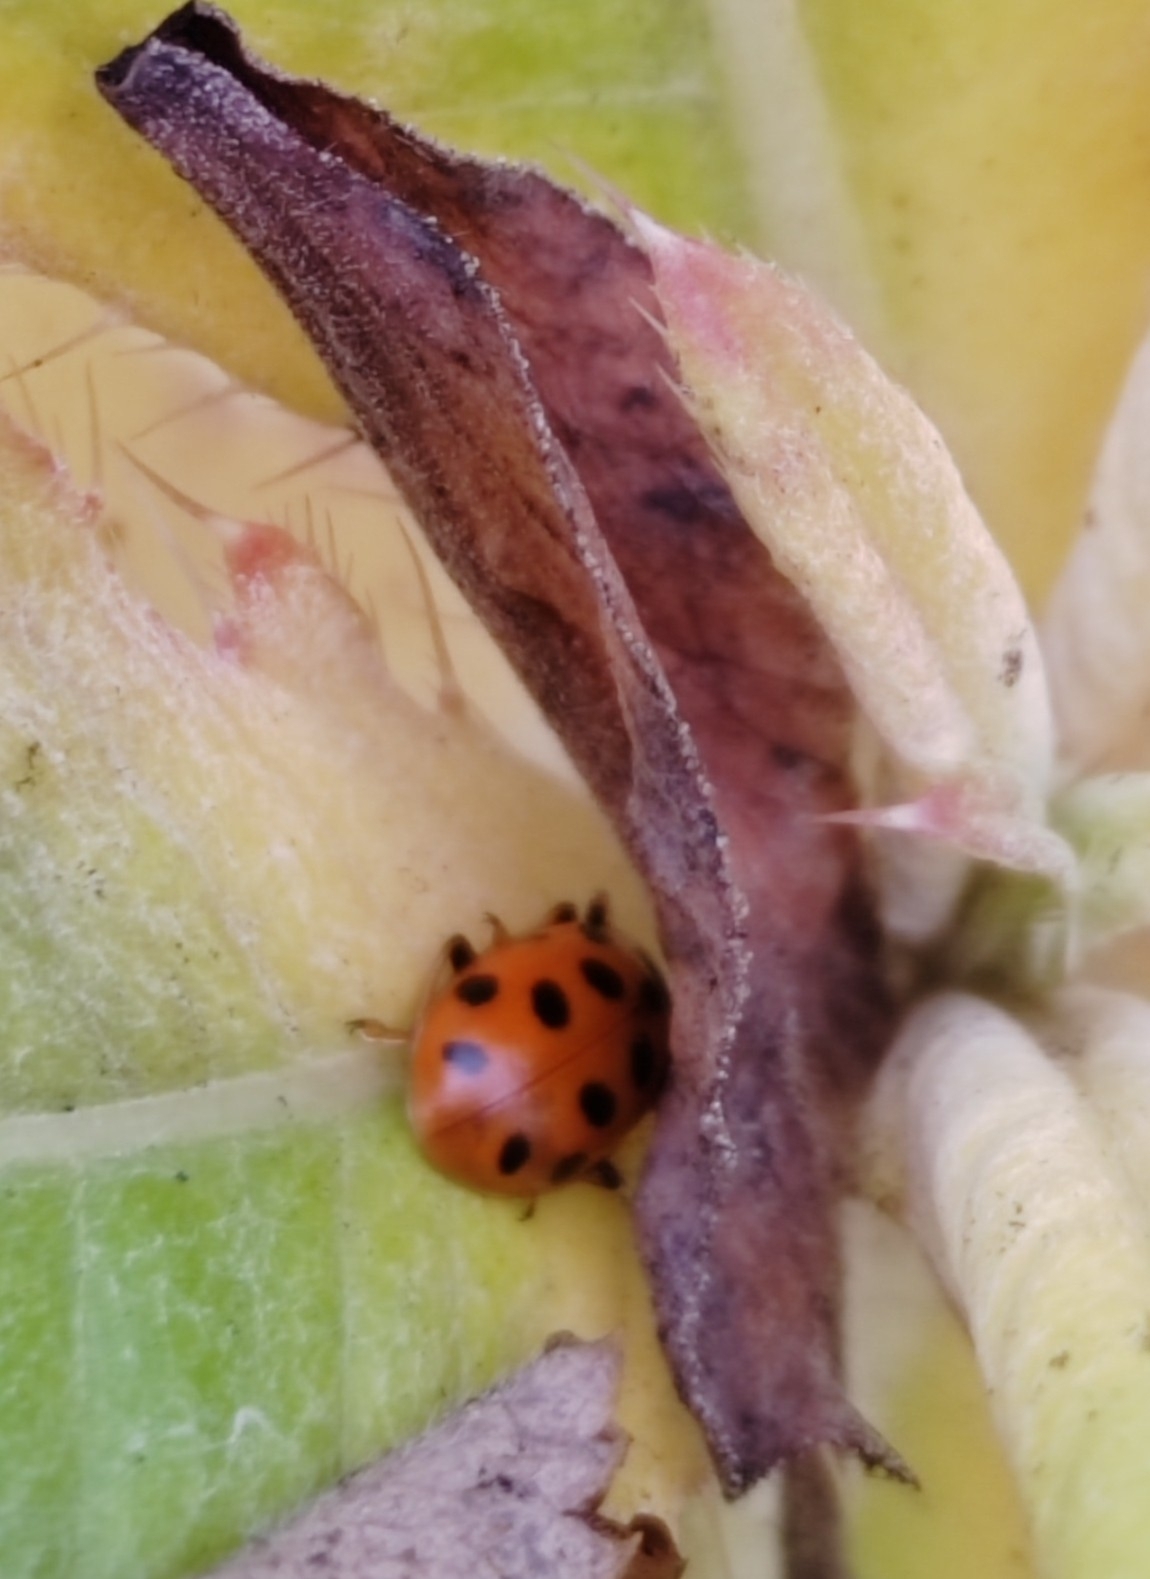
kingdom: Animalia
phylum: Arthropoda
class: Insecta
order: Coleoptera
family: Coccinellidae
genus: Hippodamia
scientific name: Hippodamia tredecimpunctata
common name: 13-spot ladybird
